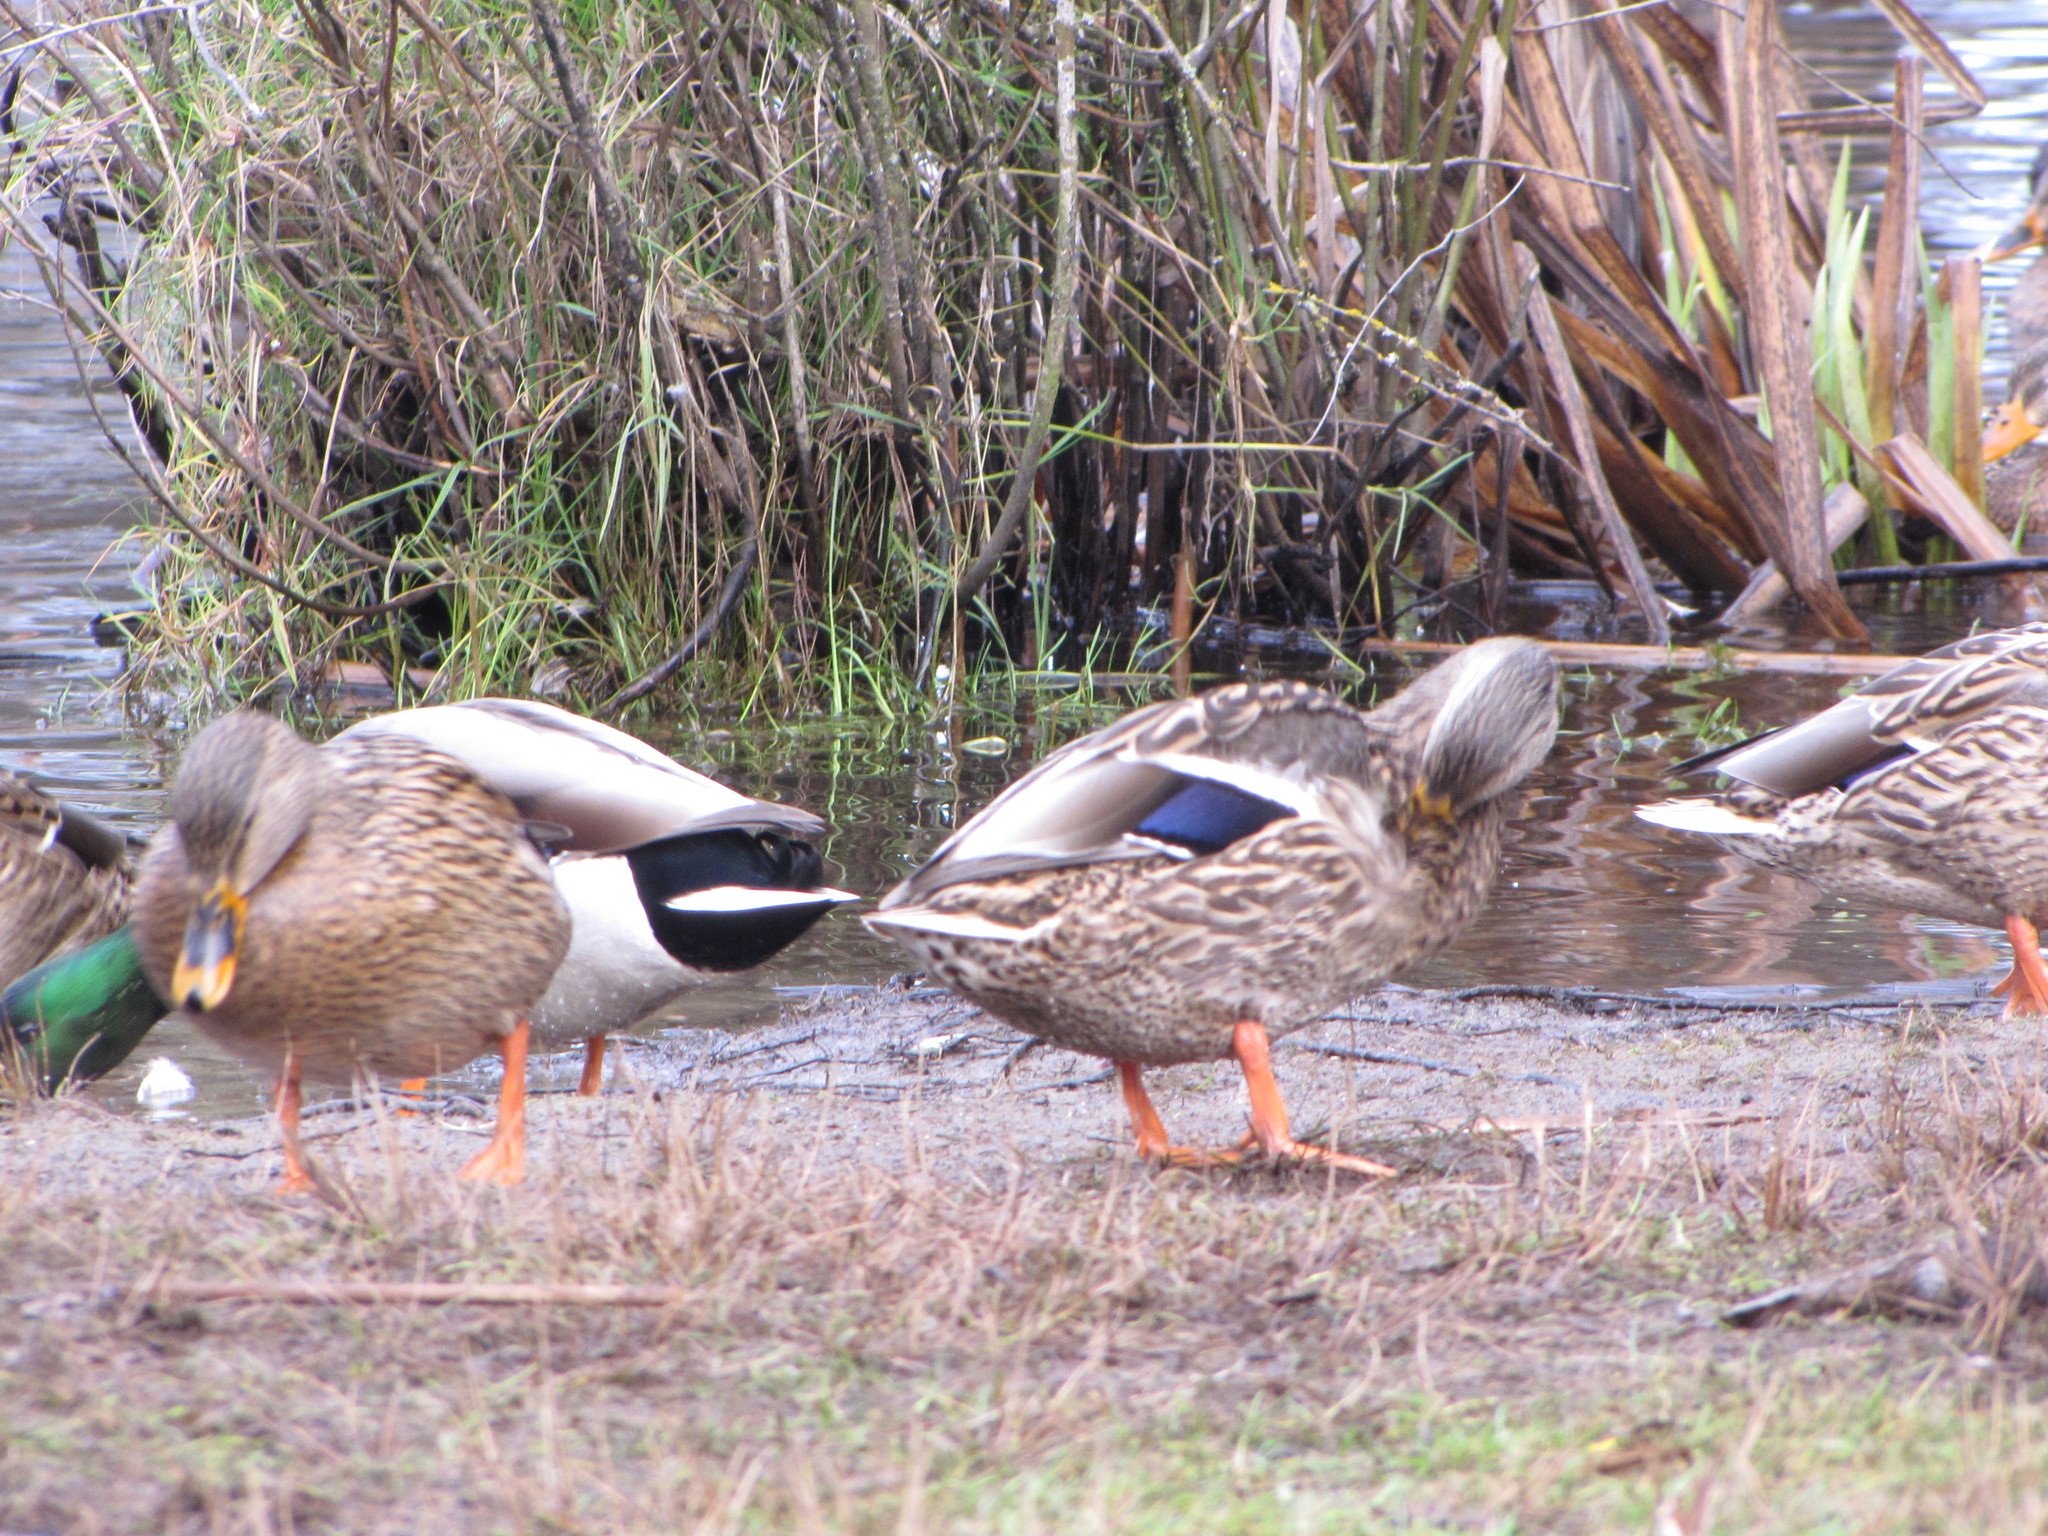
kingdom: Animalia
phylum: Chordata
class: Aves
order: Anseriformes
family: Anatidae
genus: Anas
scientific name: Anas platyrhynchos
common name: Mallard
